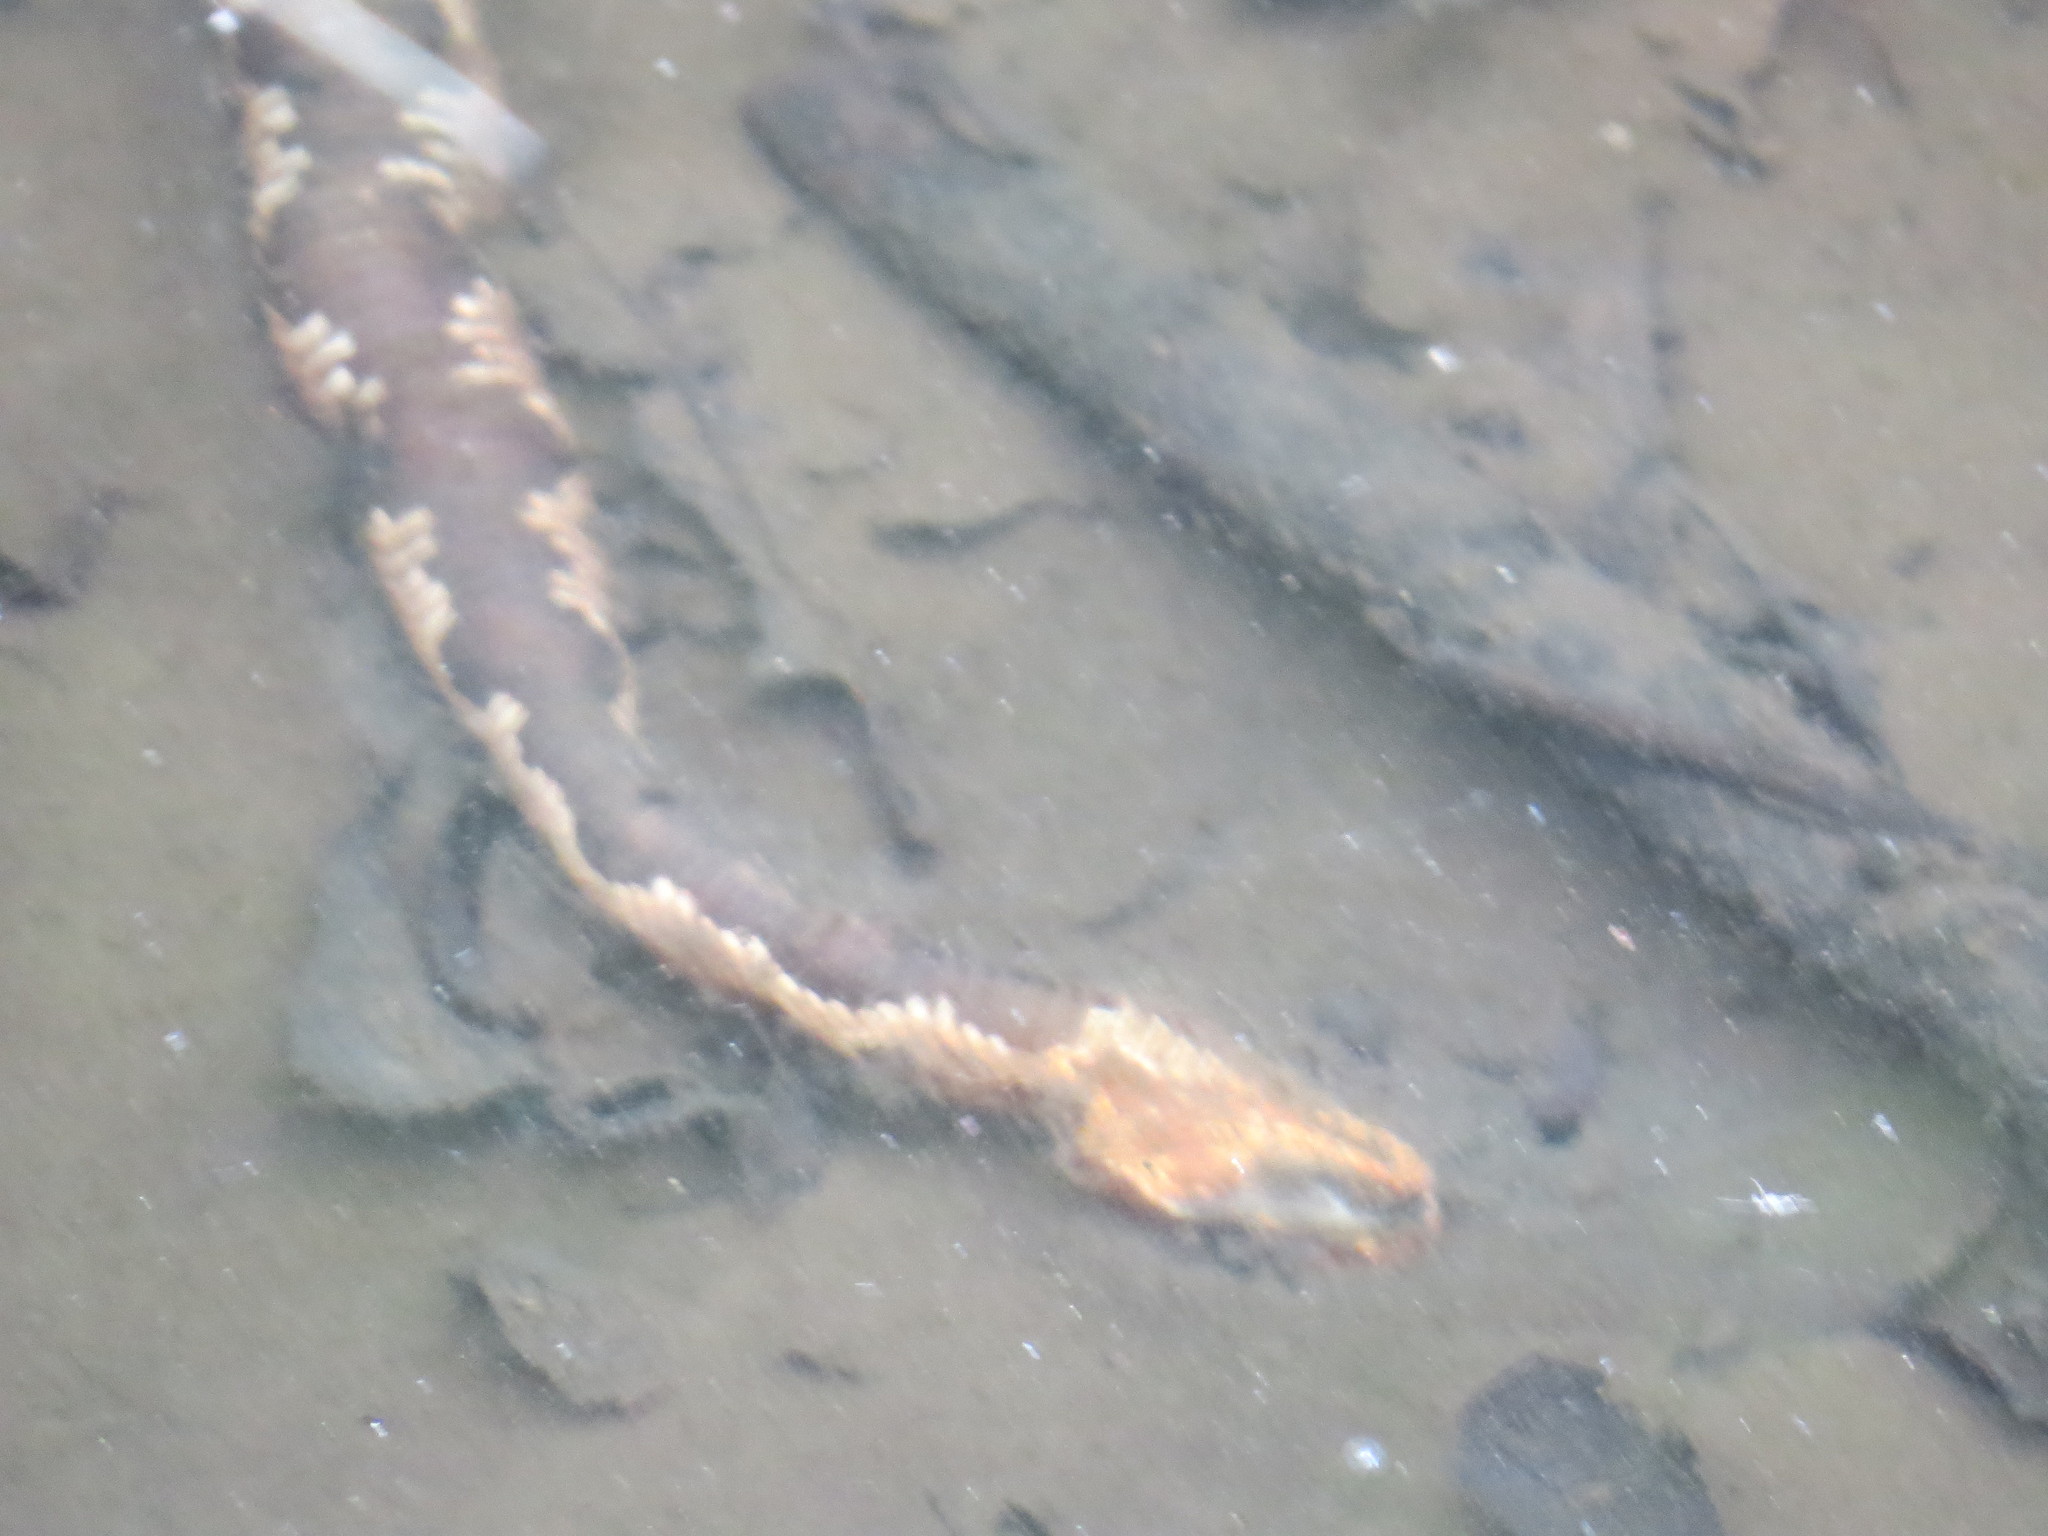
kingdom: Animalia
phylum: Chordata
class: Squamata
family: Viperidae
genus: Agkistrodon
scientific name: Agkistrodon piscivorus
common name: Cottonmouth
